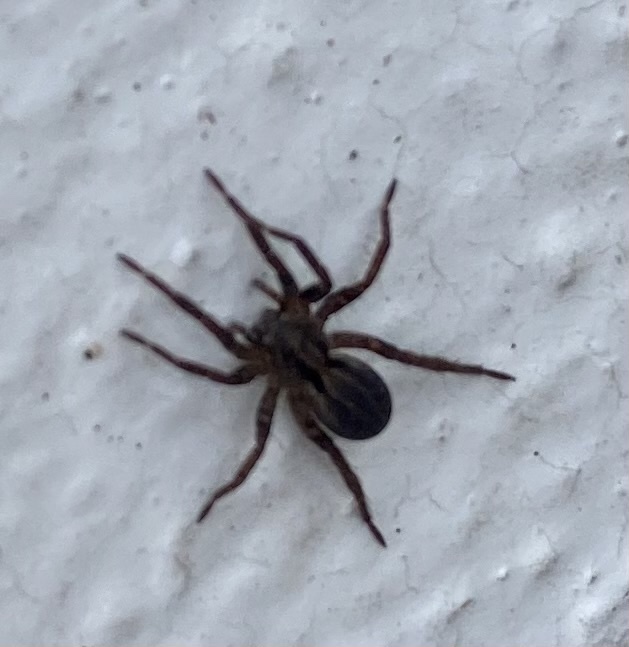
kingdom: Animalia
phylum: Arthropoda
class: Arachnida
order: Araneae
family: Lycosidae
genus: Alopecosa
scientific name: Alopecosa
